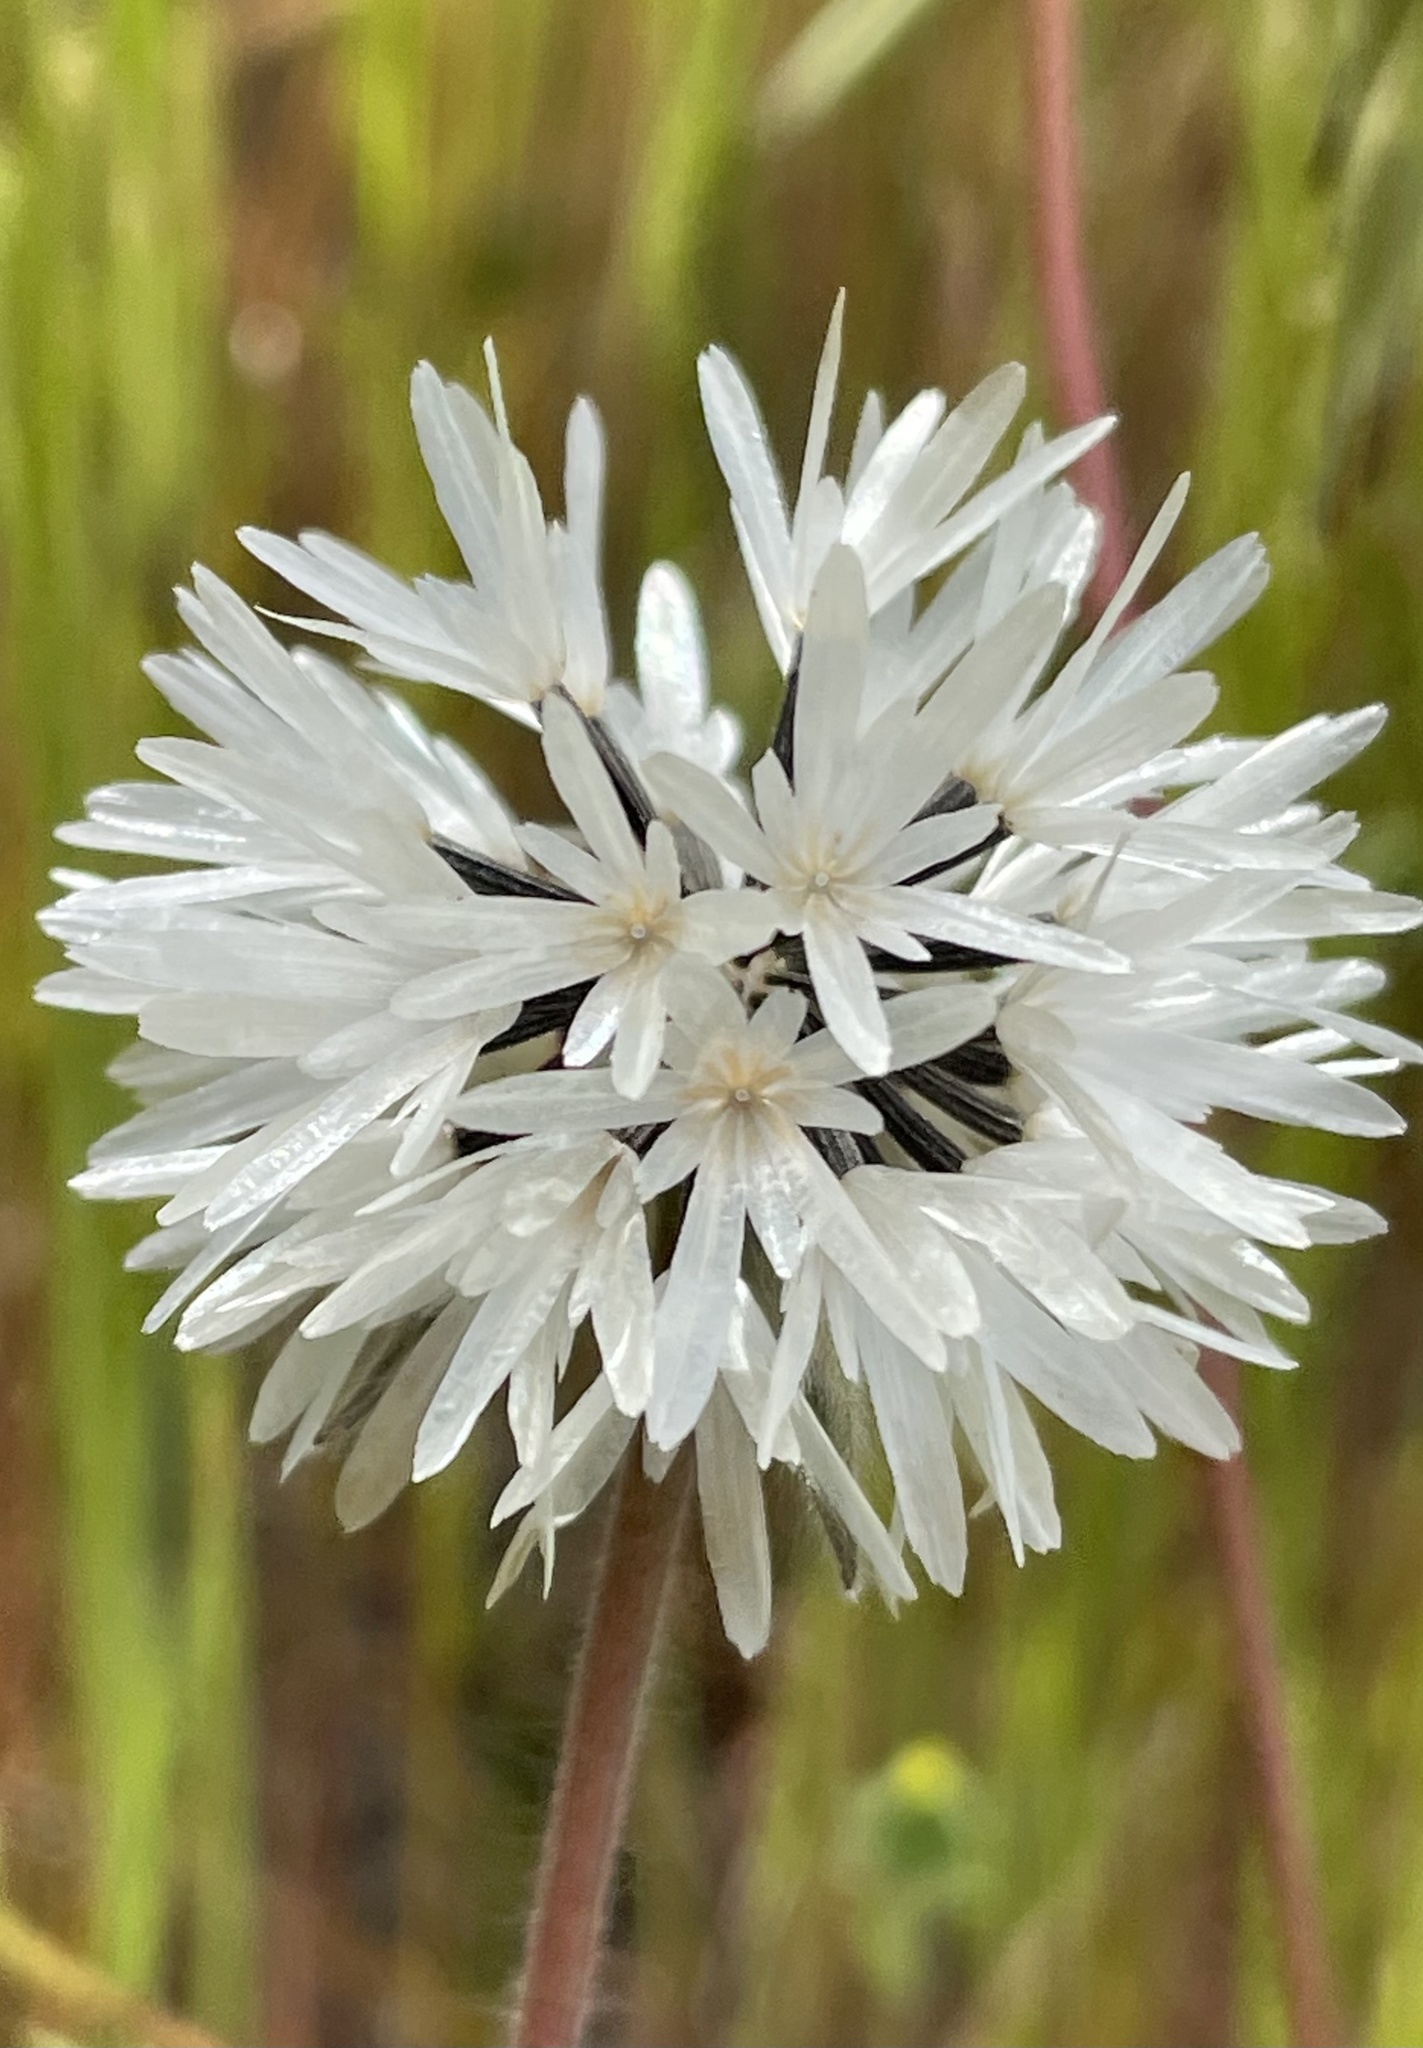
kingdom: Plantae
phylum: Tracheophyta
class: Magnoliopsida
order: Asterales
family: Asteraceae
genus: Achyrachaena
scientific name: Achyrachaena mollis
